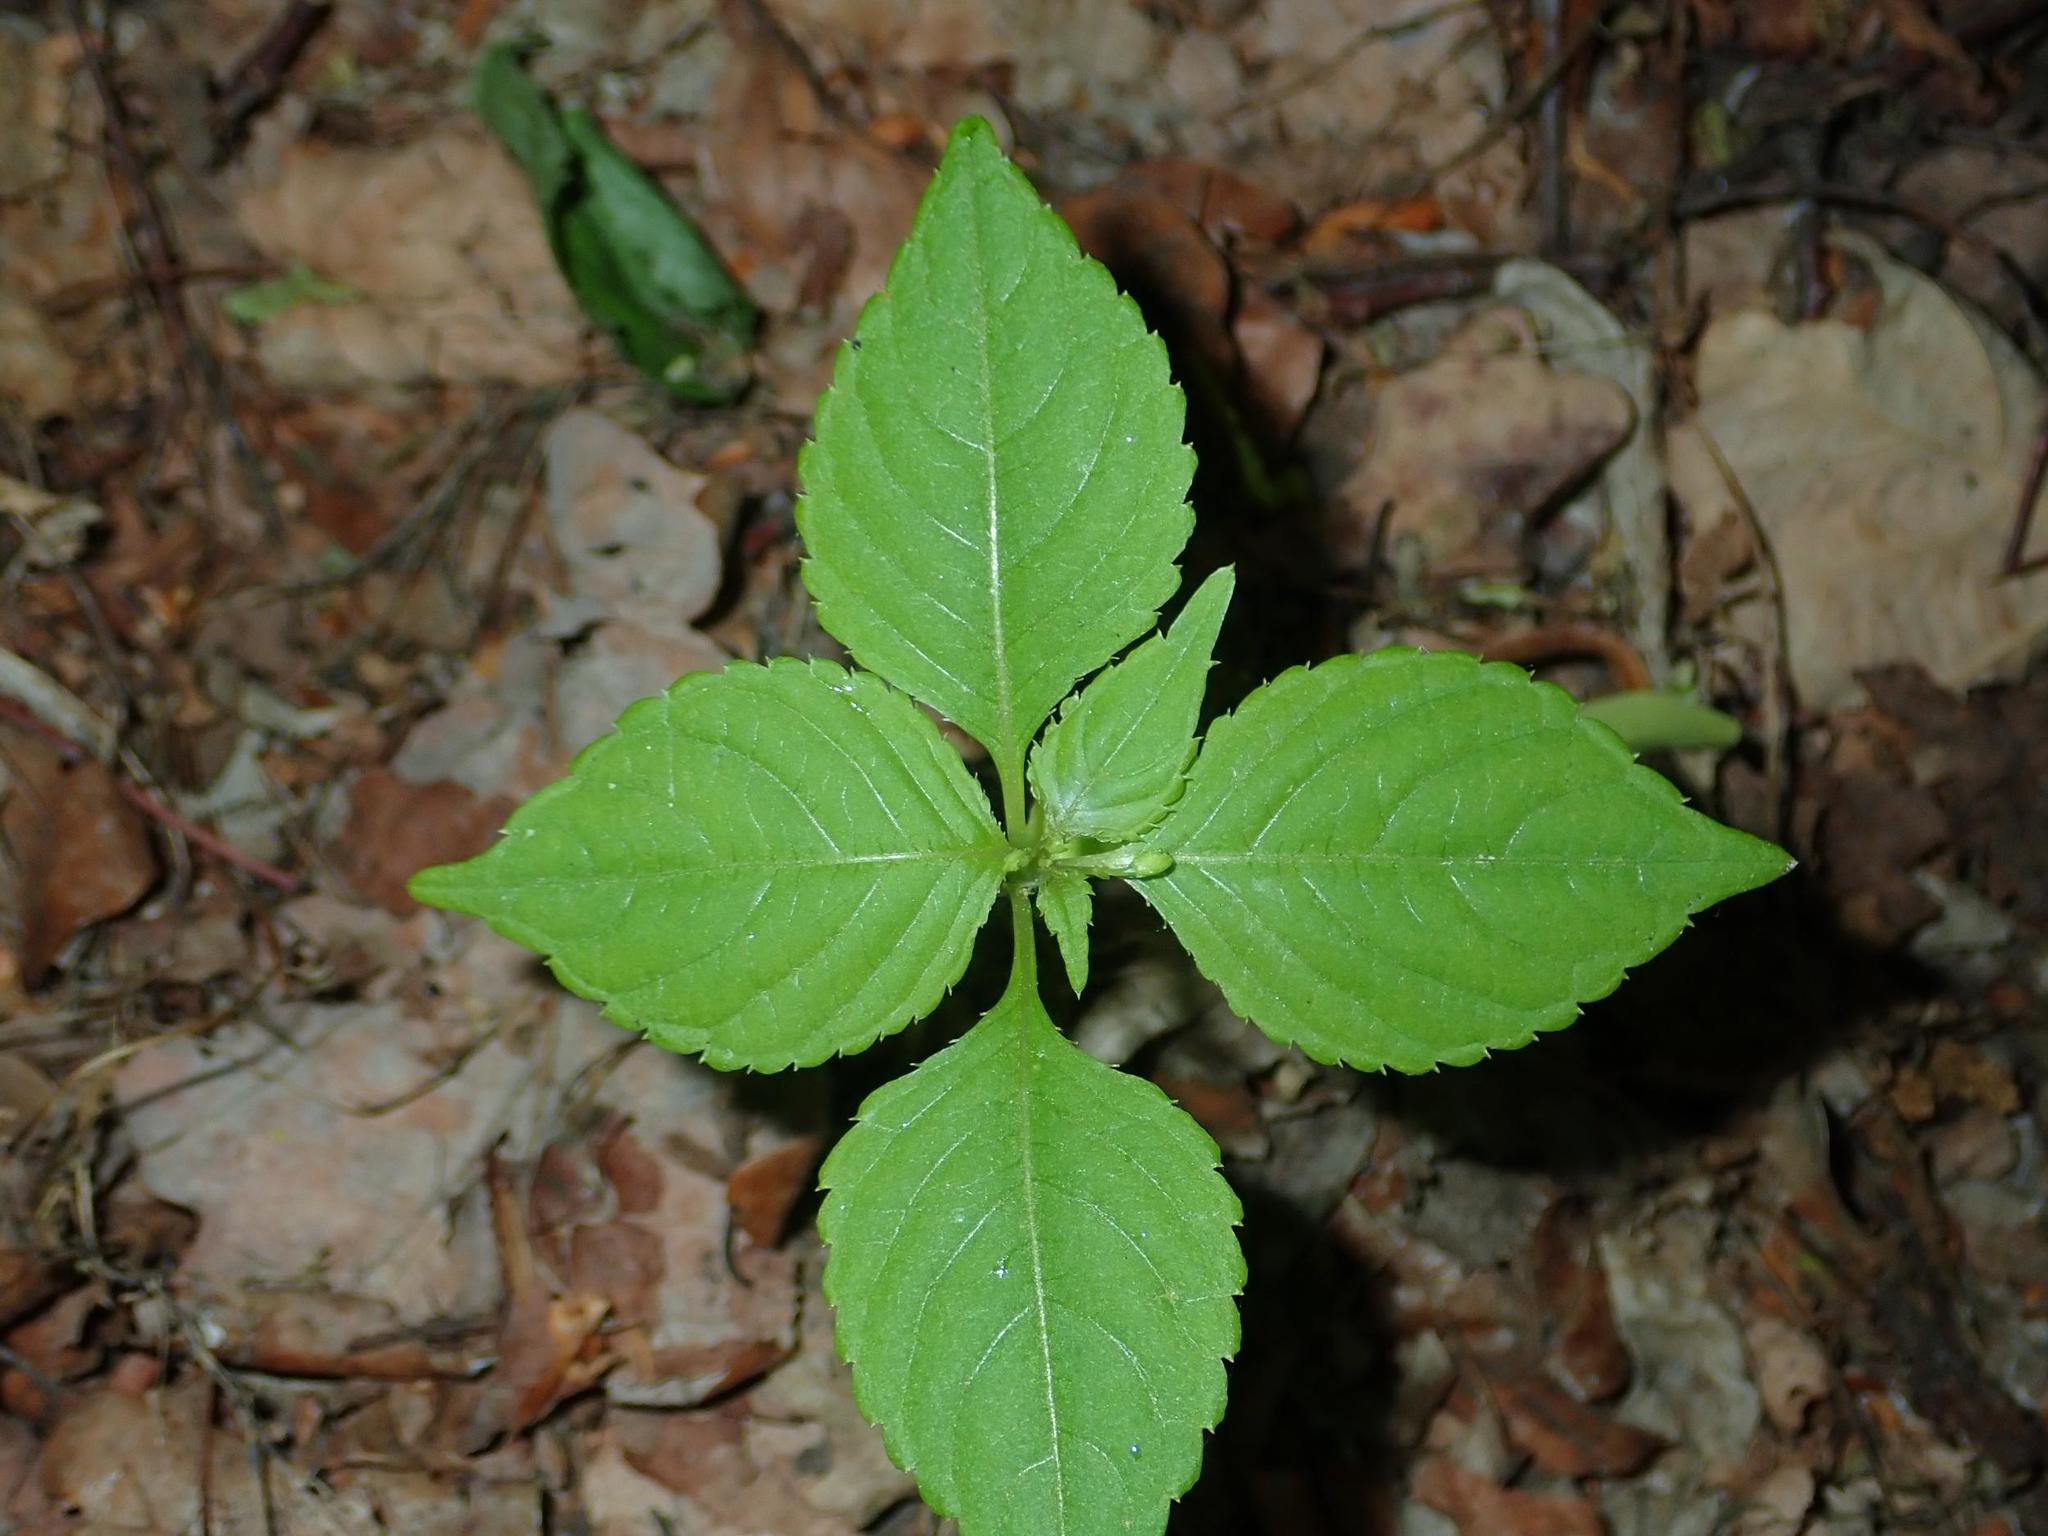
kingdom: Plantae
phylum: Tracheophyta
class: Magnoliopsida
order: Ericales
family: Balsaminaceae
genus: Impatiens
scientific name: Impatiens parviflora
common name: Small balsam
